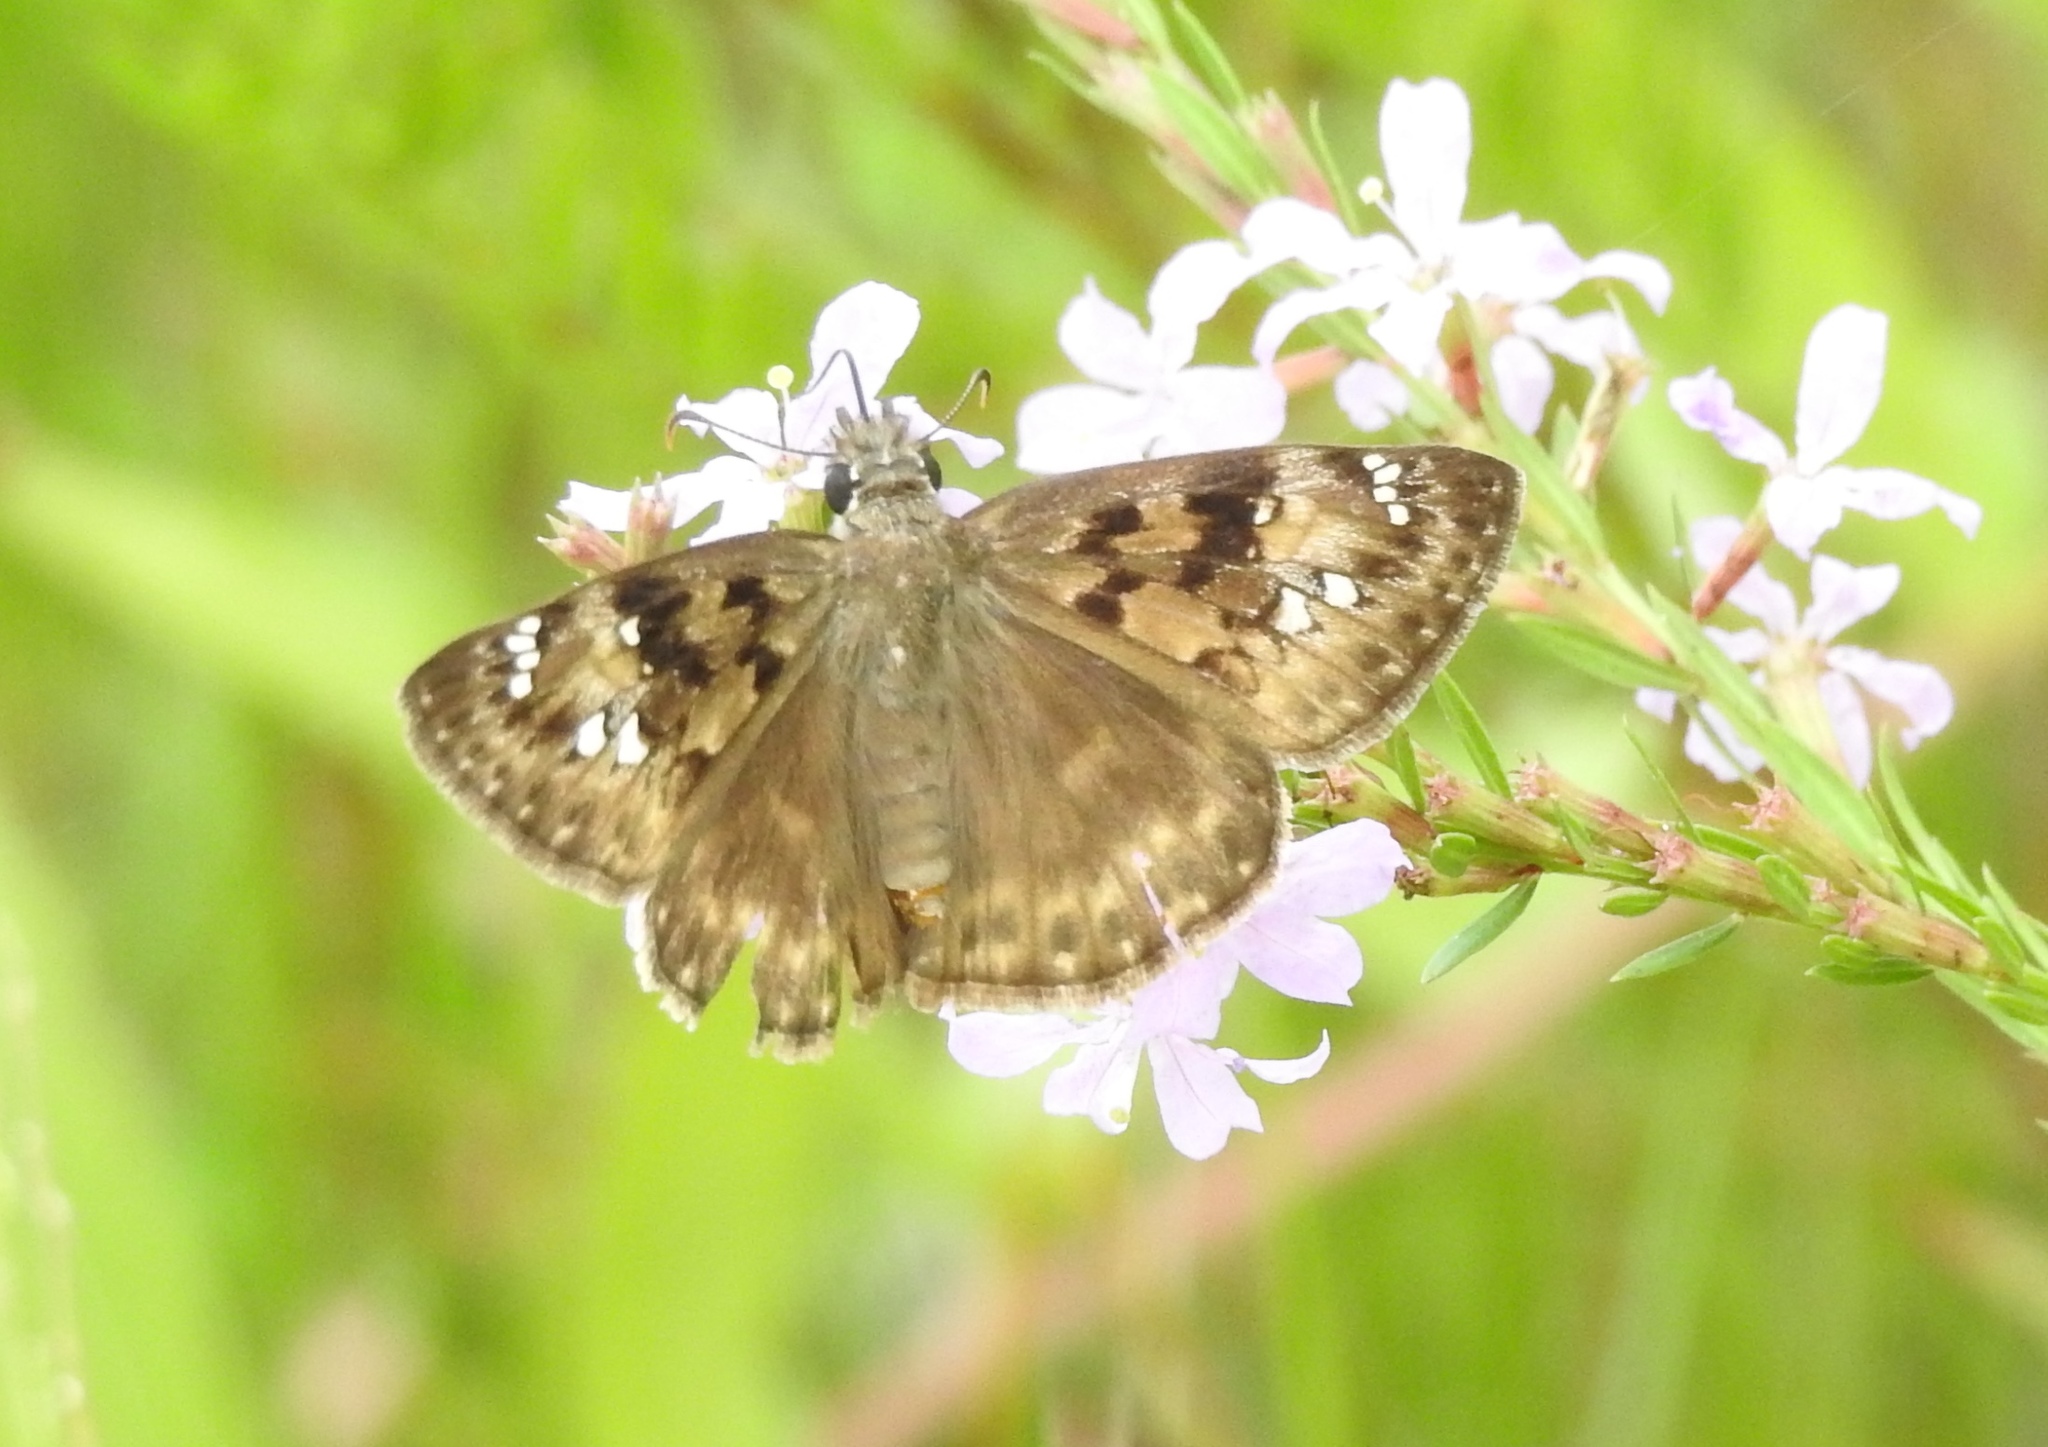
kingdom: Animalia
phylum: Arthropoda
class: Insecta
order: Lepidoptera
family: Hesperiidae
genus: Erynnis
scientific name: Erynnis horatius
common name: Horace's duskywing
